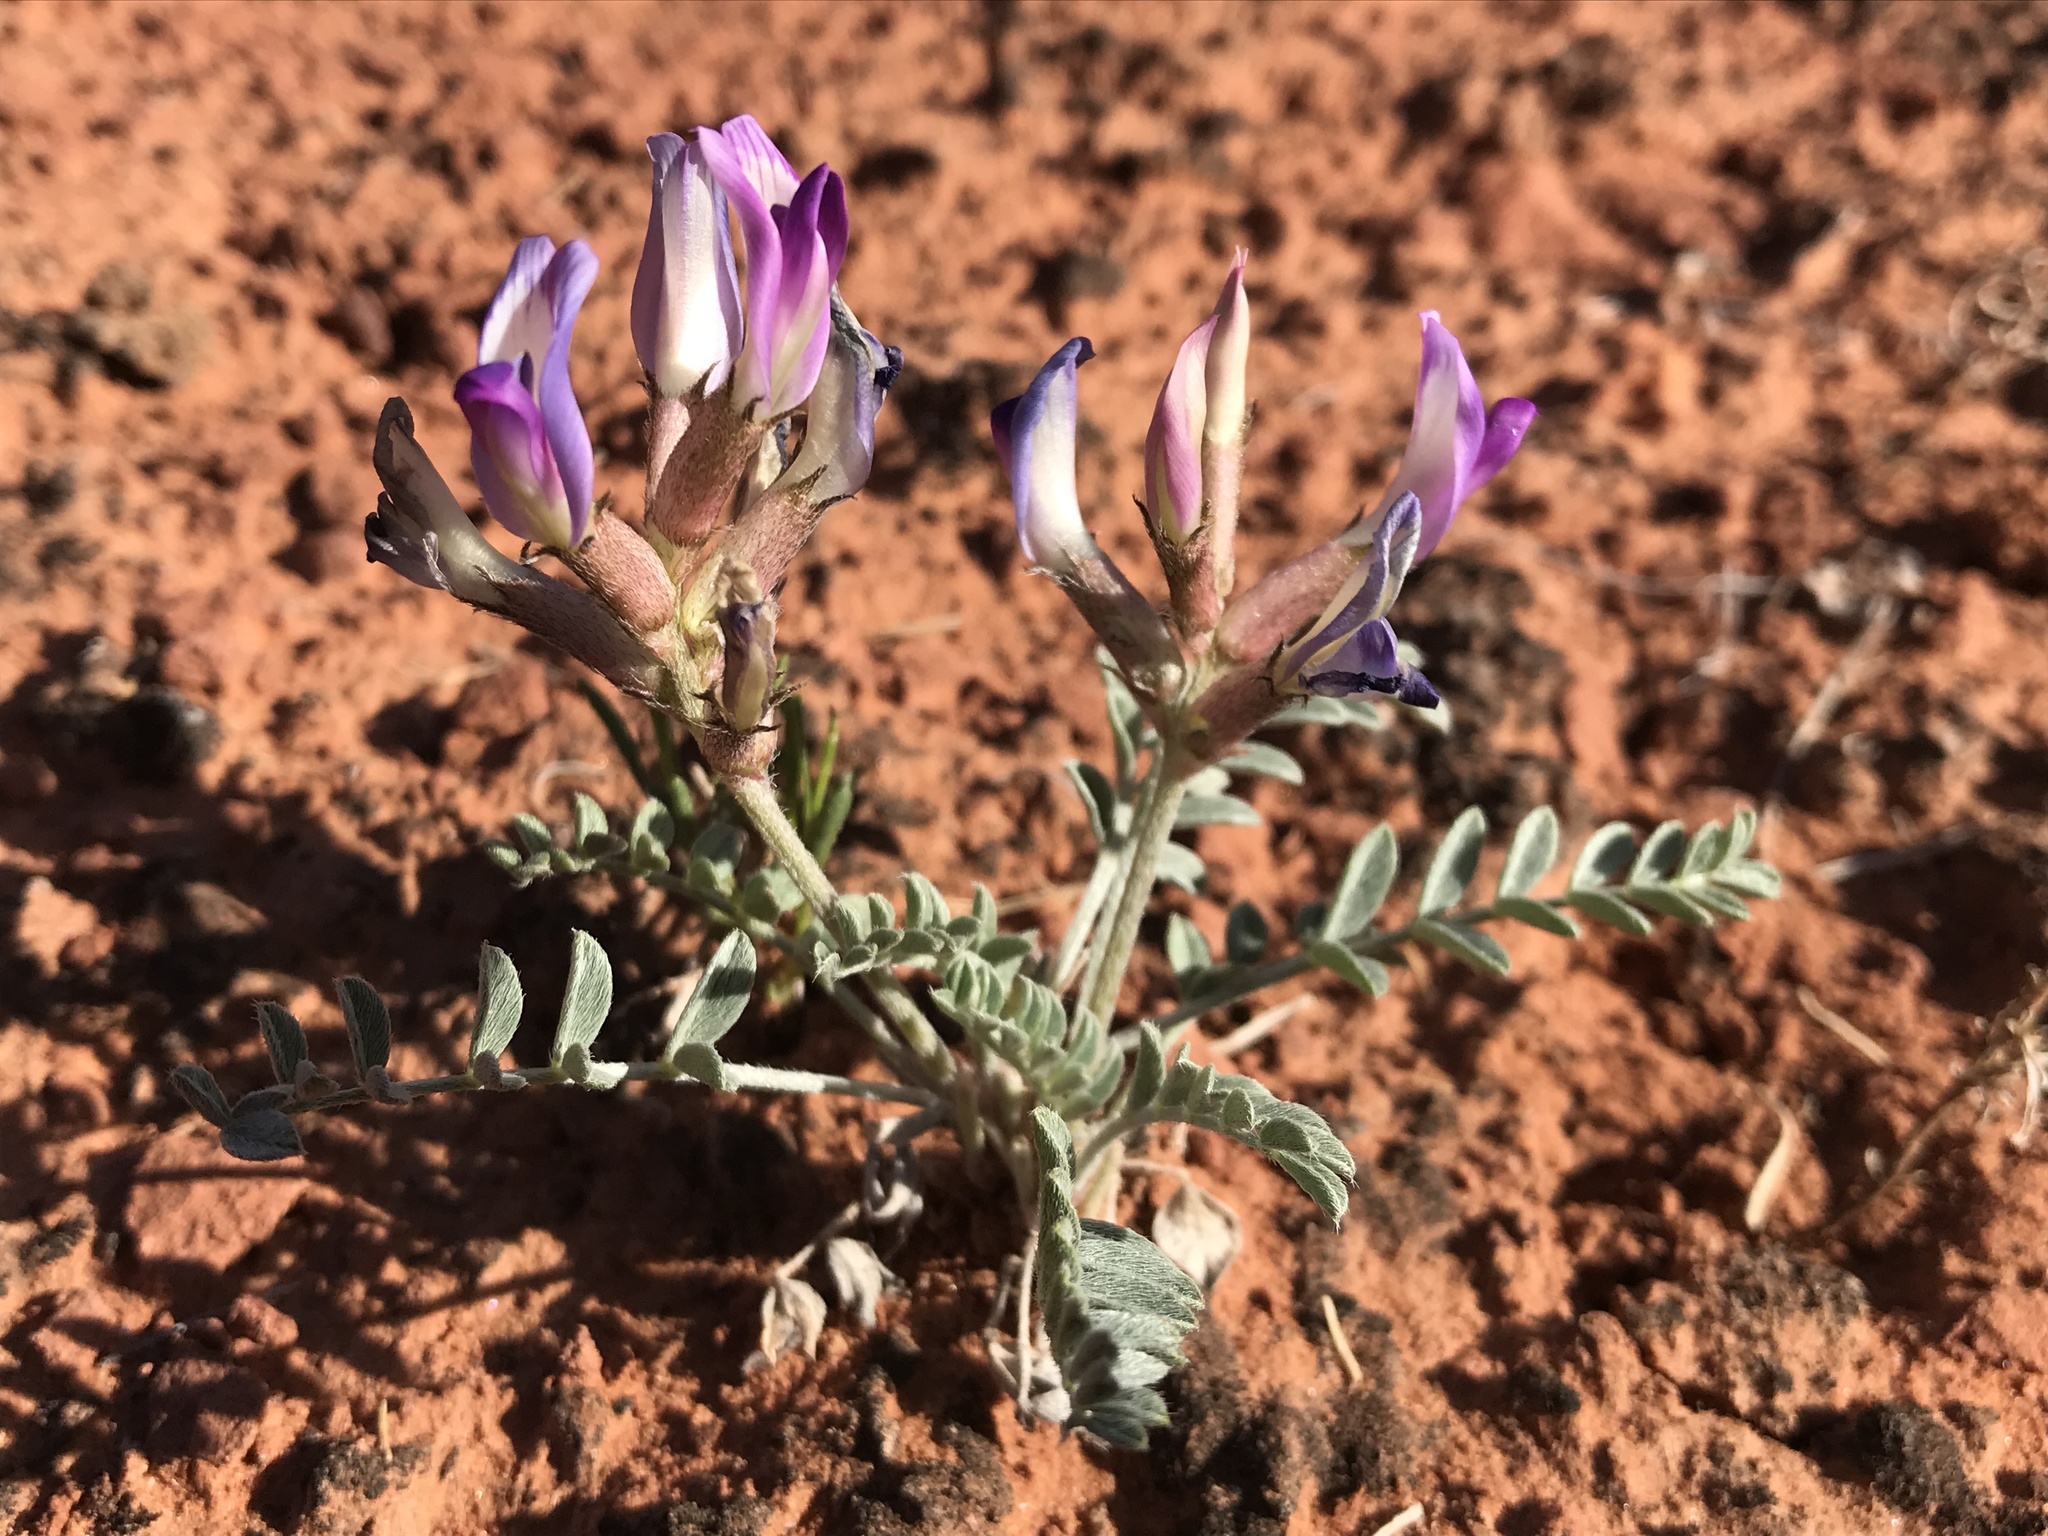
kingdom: Plantae
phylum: Tracheophyta
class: Magnoliopsida
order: Fabales
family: Fabaceae
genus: Astragalus
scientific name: Astragalus amphioxys
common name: Crescent milk-vetch
